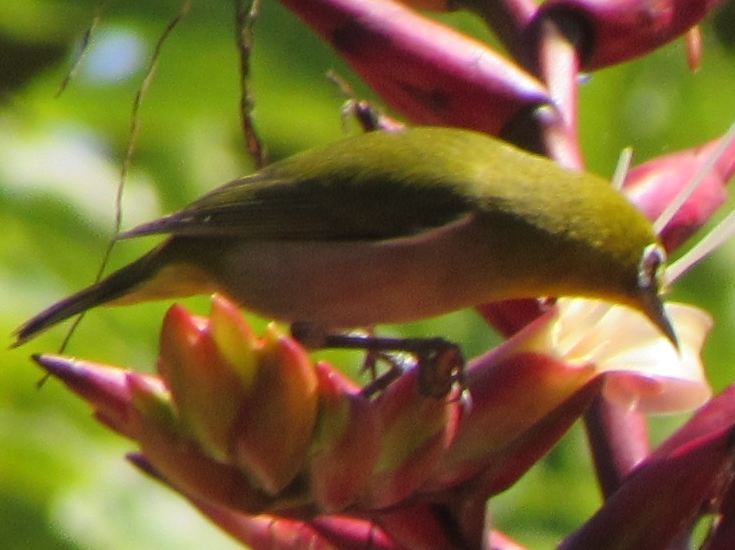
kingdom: Animalia
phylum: Chordata
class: Aves
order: Passeriformes
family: Zosteropidae
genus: Zosterops
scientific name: Zosterops japonicus
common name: Japanese white-eye
